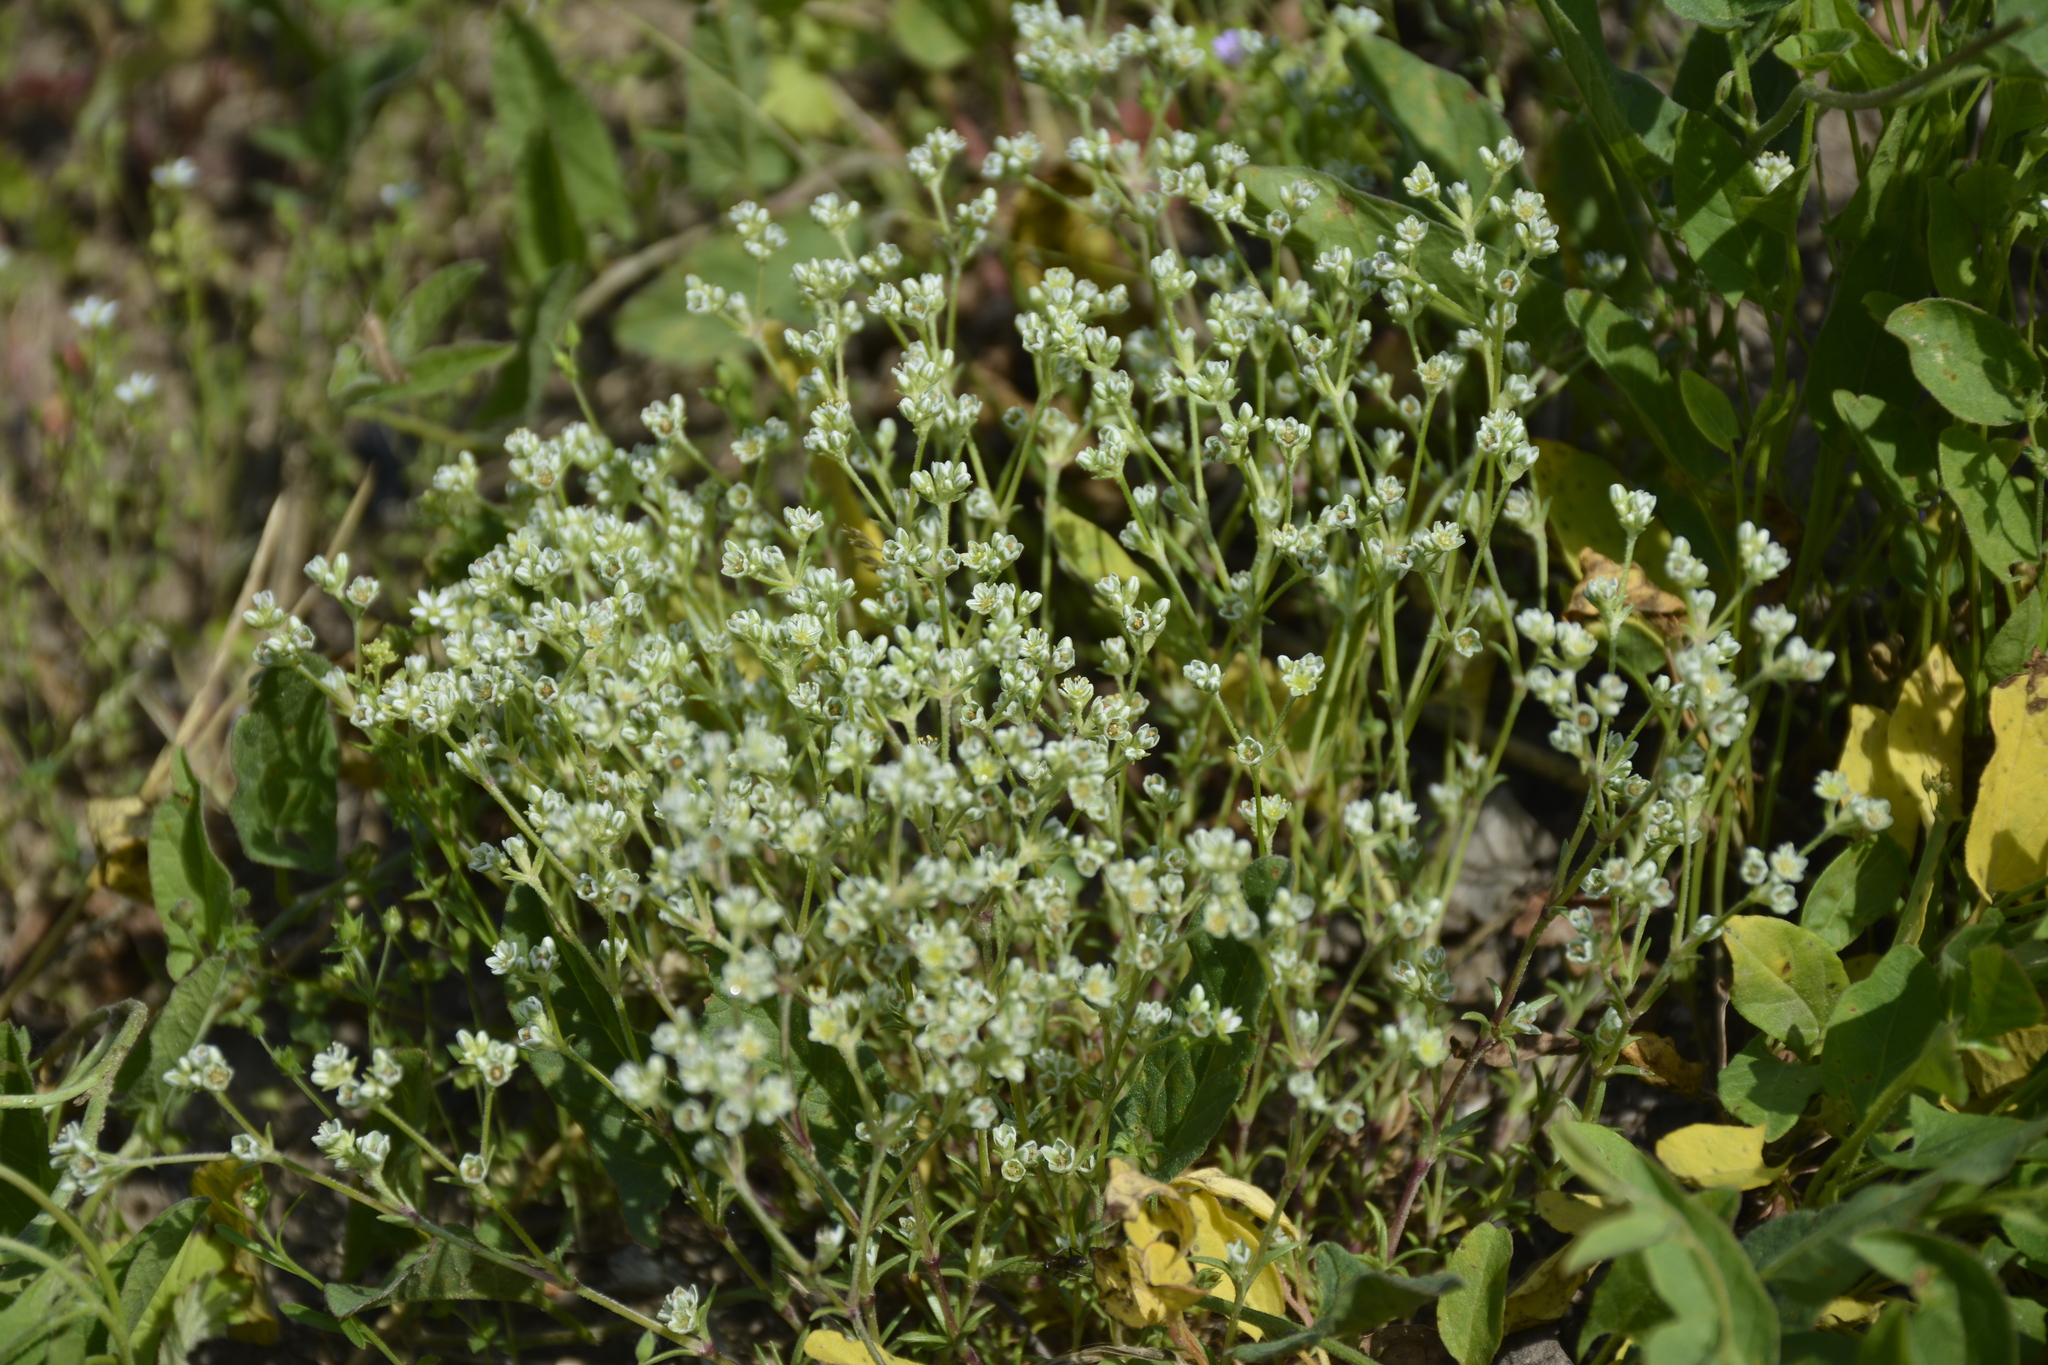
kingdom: Plantae
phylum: Tracheophyta
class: Magnoliopsida
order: Caryophyllales
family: Caryophyllaceae
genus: Scleranthus
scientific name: Scleranthus perennis
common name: Perennial knawel
